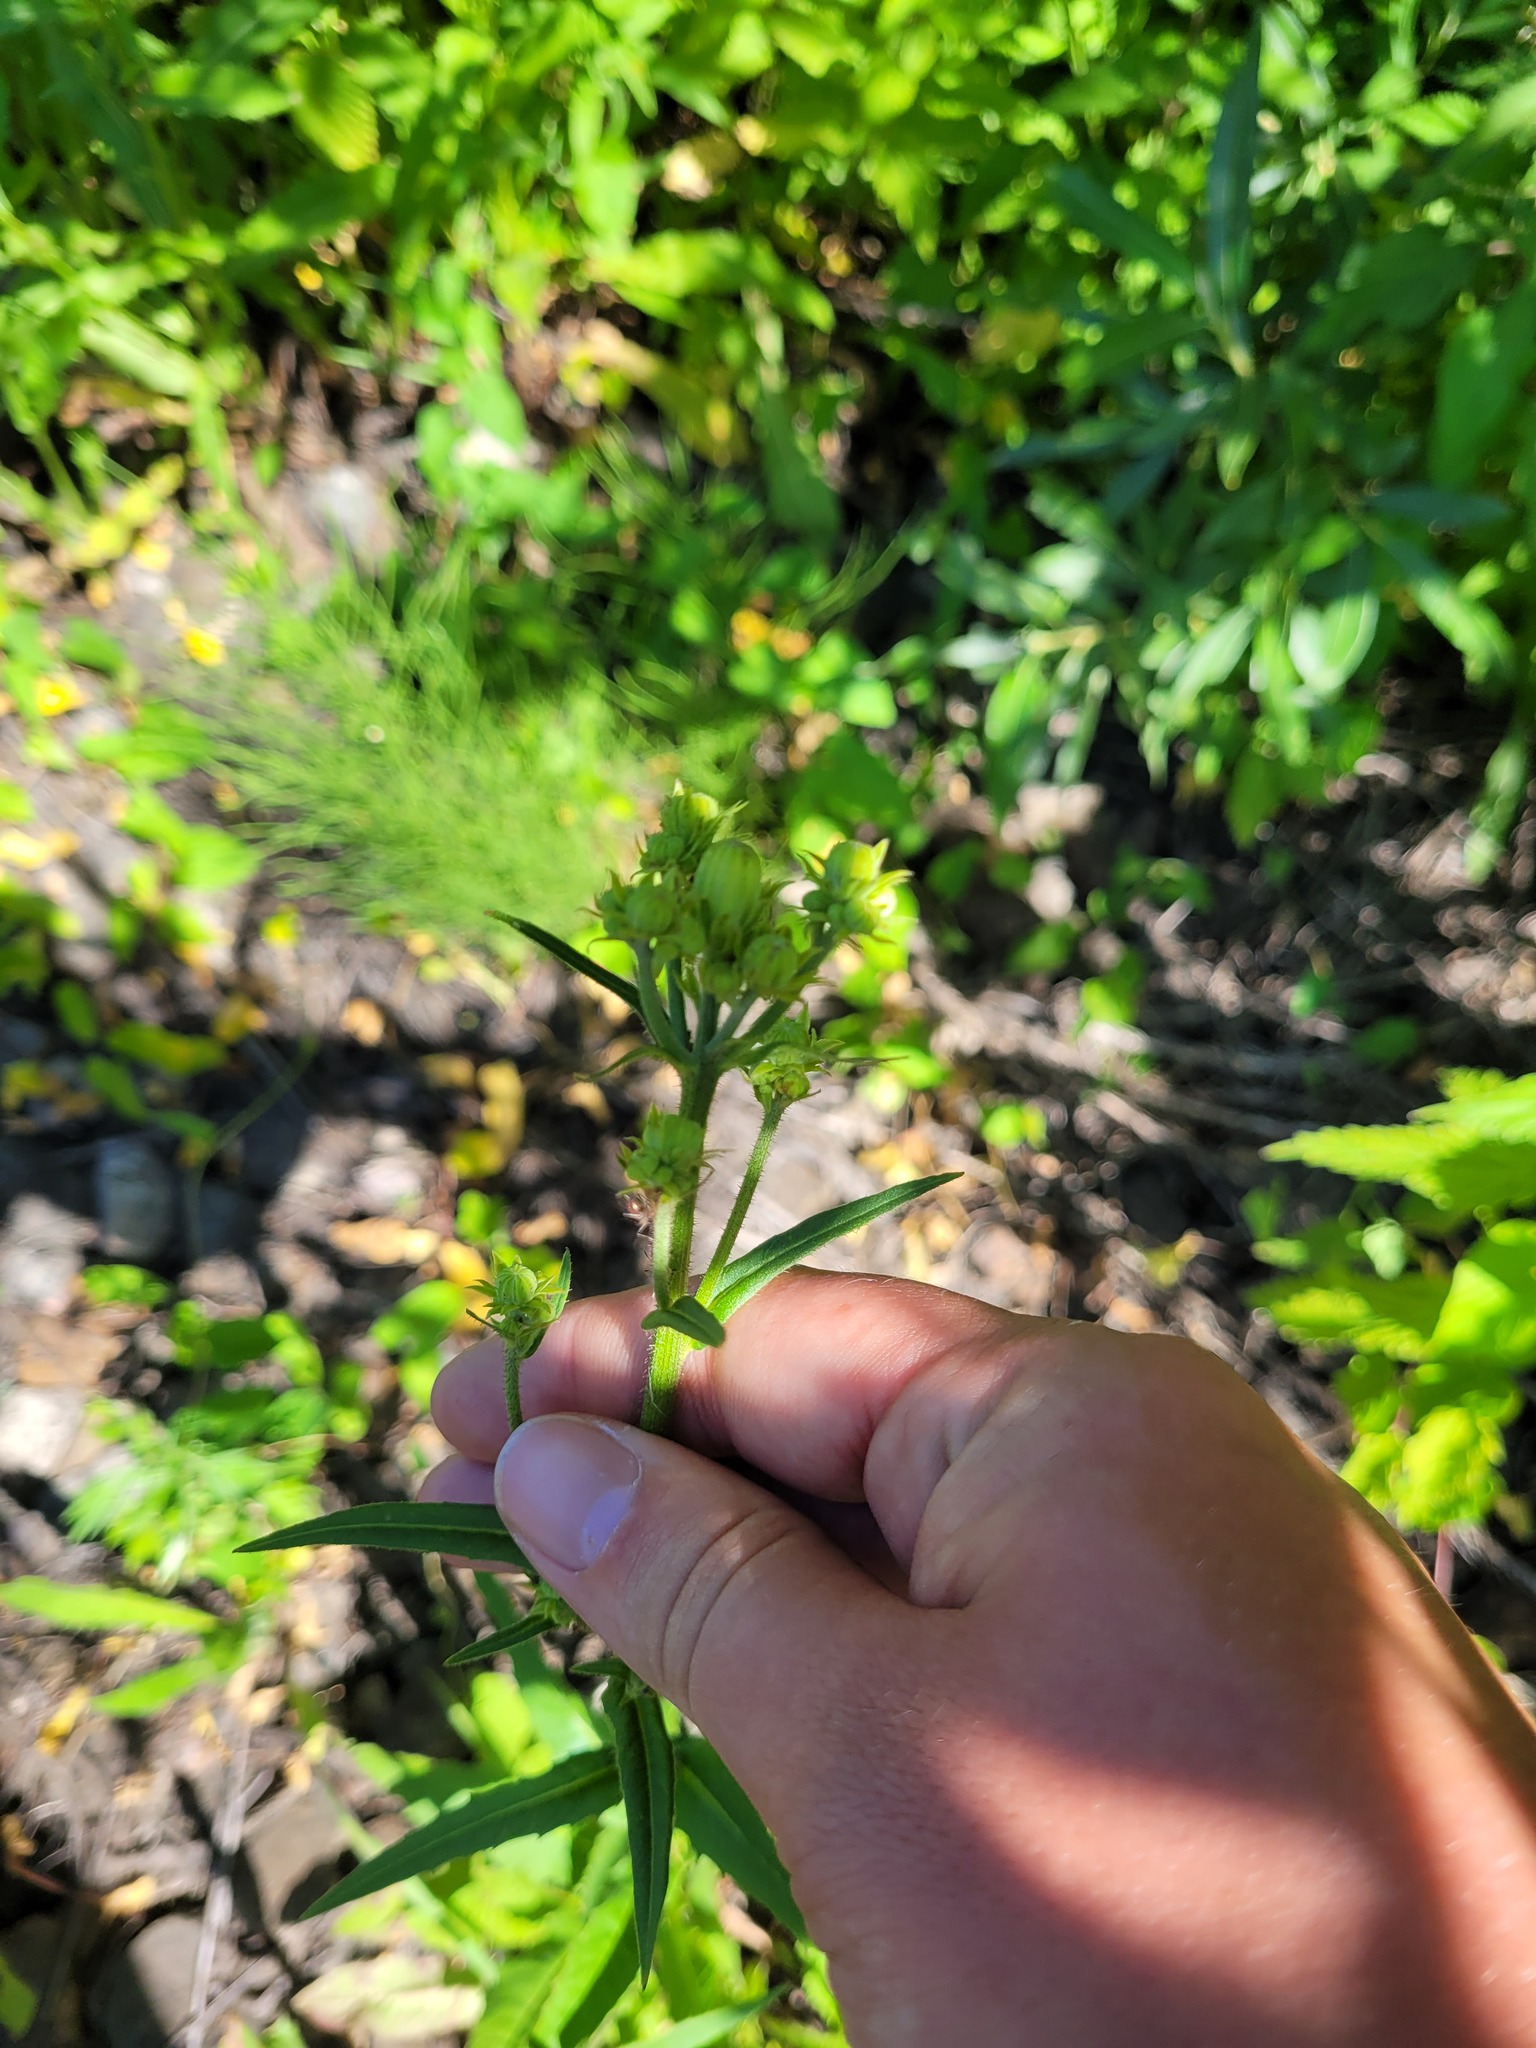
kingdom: Plantae
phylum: Tracheophyta
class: Magnoliopsida
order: Asterales
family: Asteraceae
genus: Picris
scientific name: Picris hieracioides
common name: Hawkweed oxtongue
